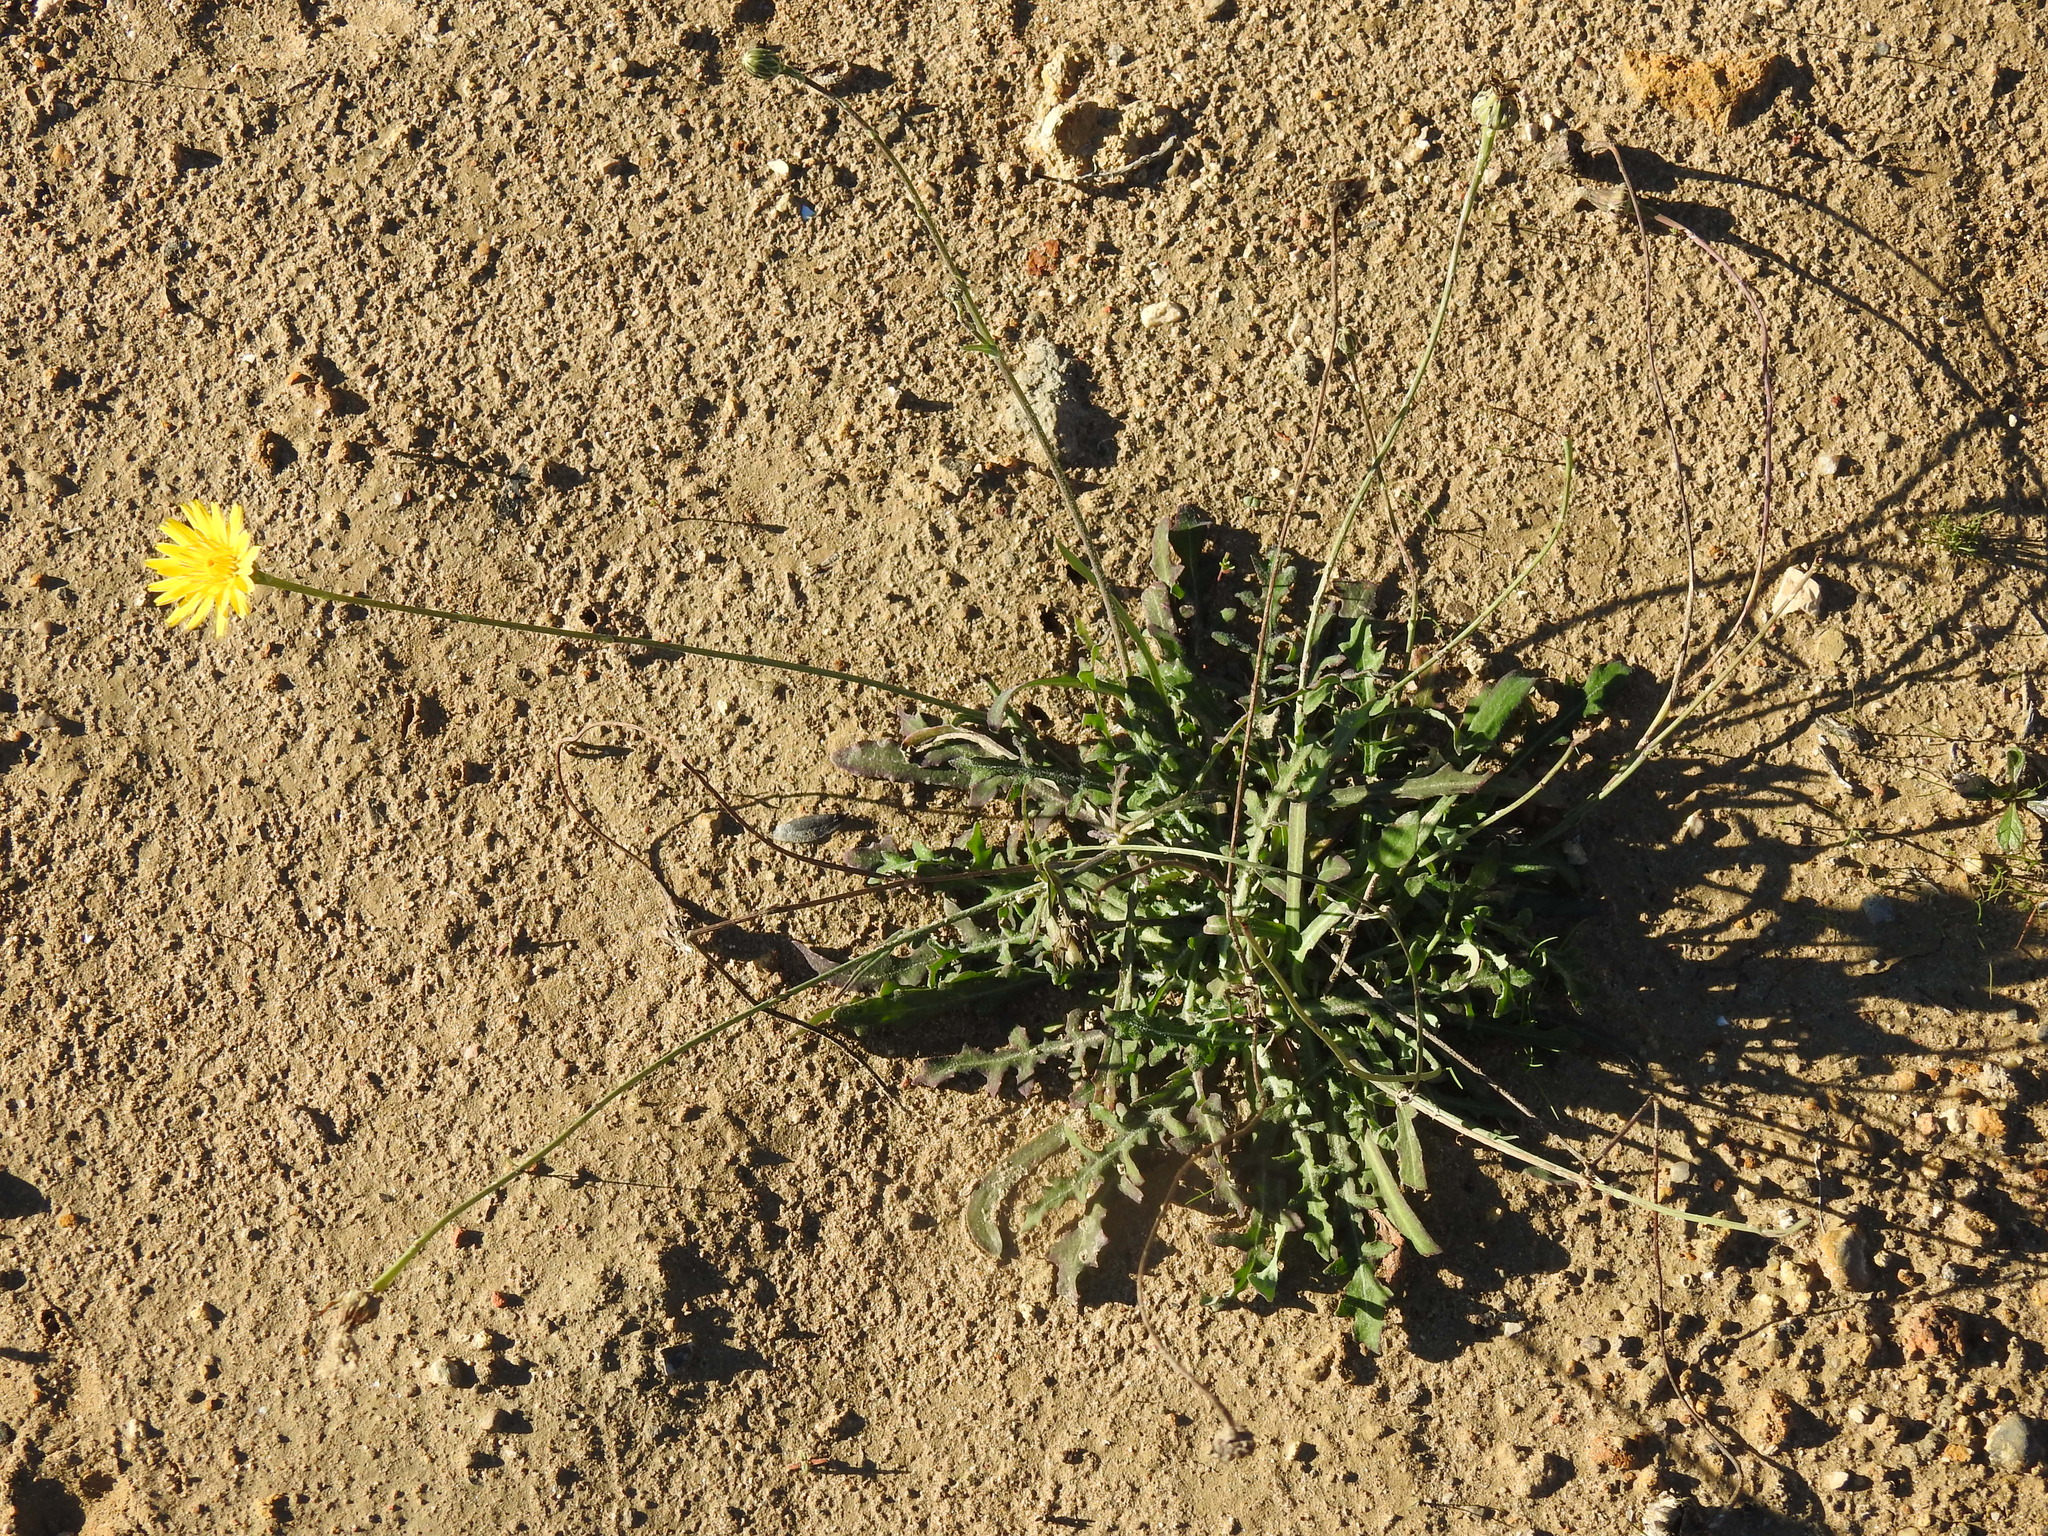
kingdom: Plantae
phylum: Tracheophyta
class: Magnoliopsida
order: Asterales
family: Asteraceae
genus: Reichardia
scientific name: Reichardia picroides
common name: Common brighteyes
